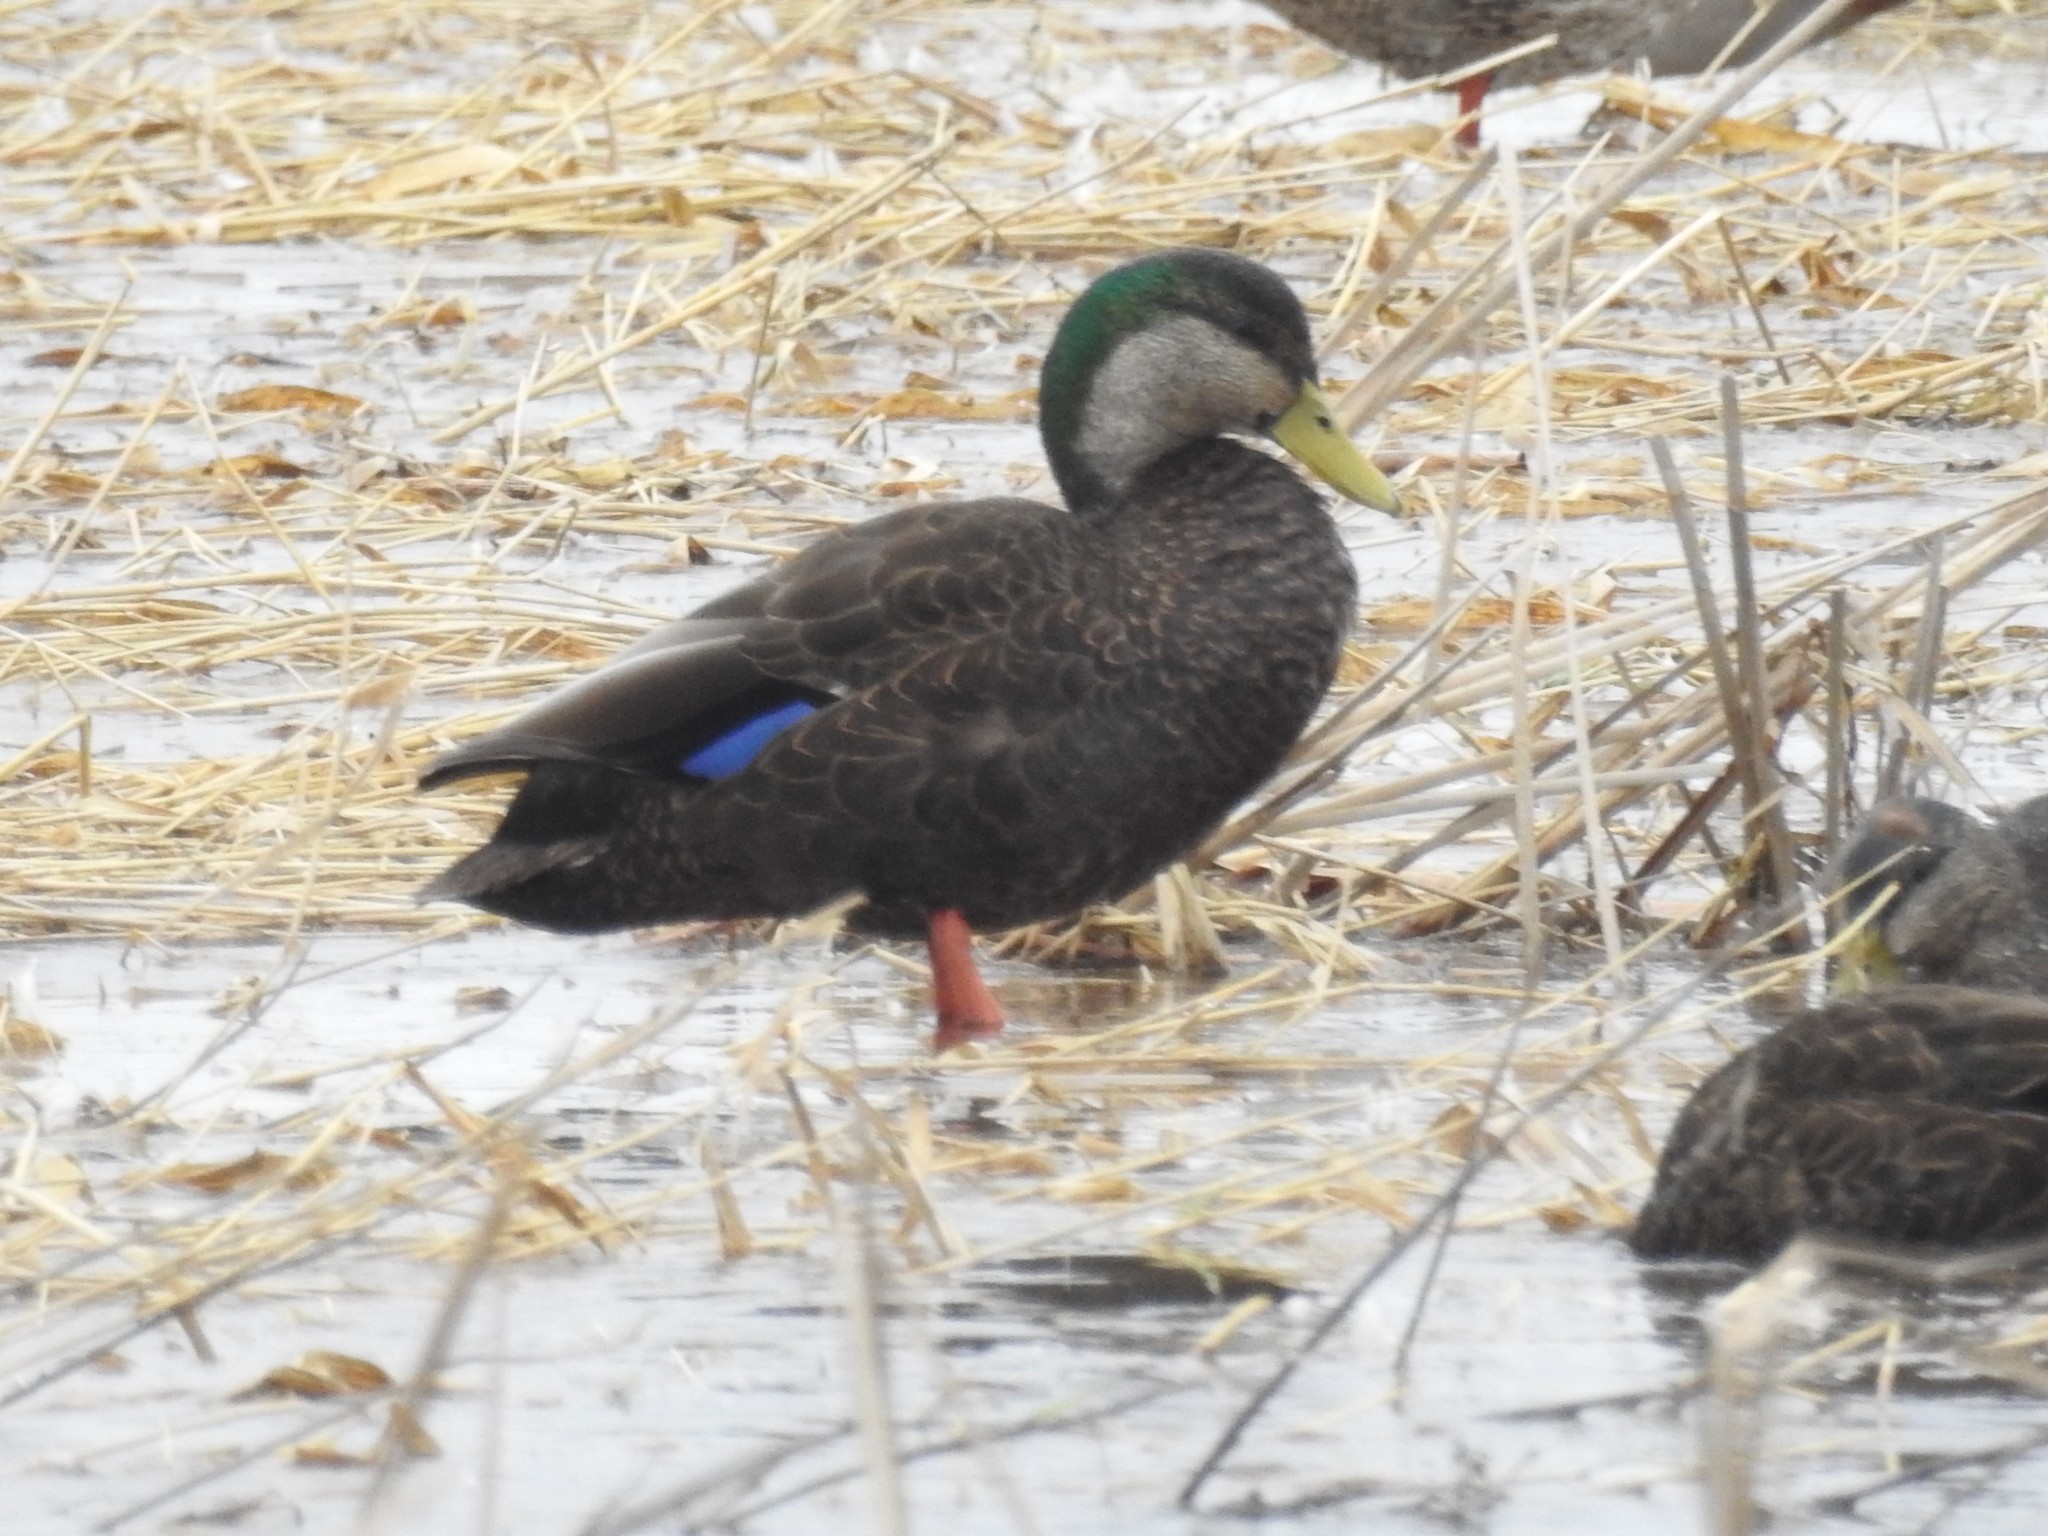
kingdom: Animalia
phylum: Chordata
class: Aves
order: Anseriformes
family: Anatidae
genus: Anas
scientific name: Anas
